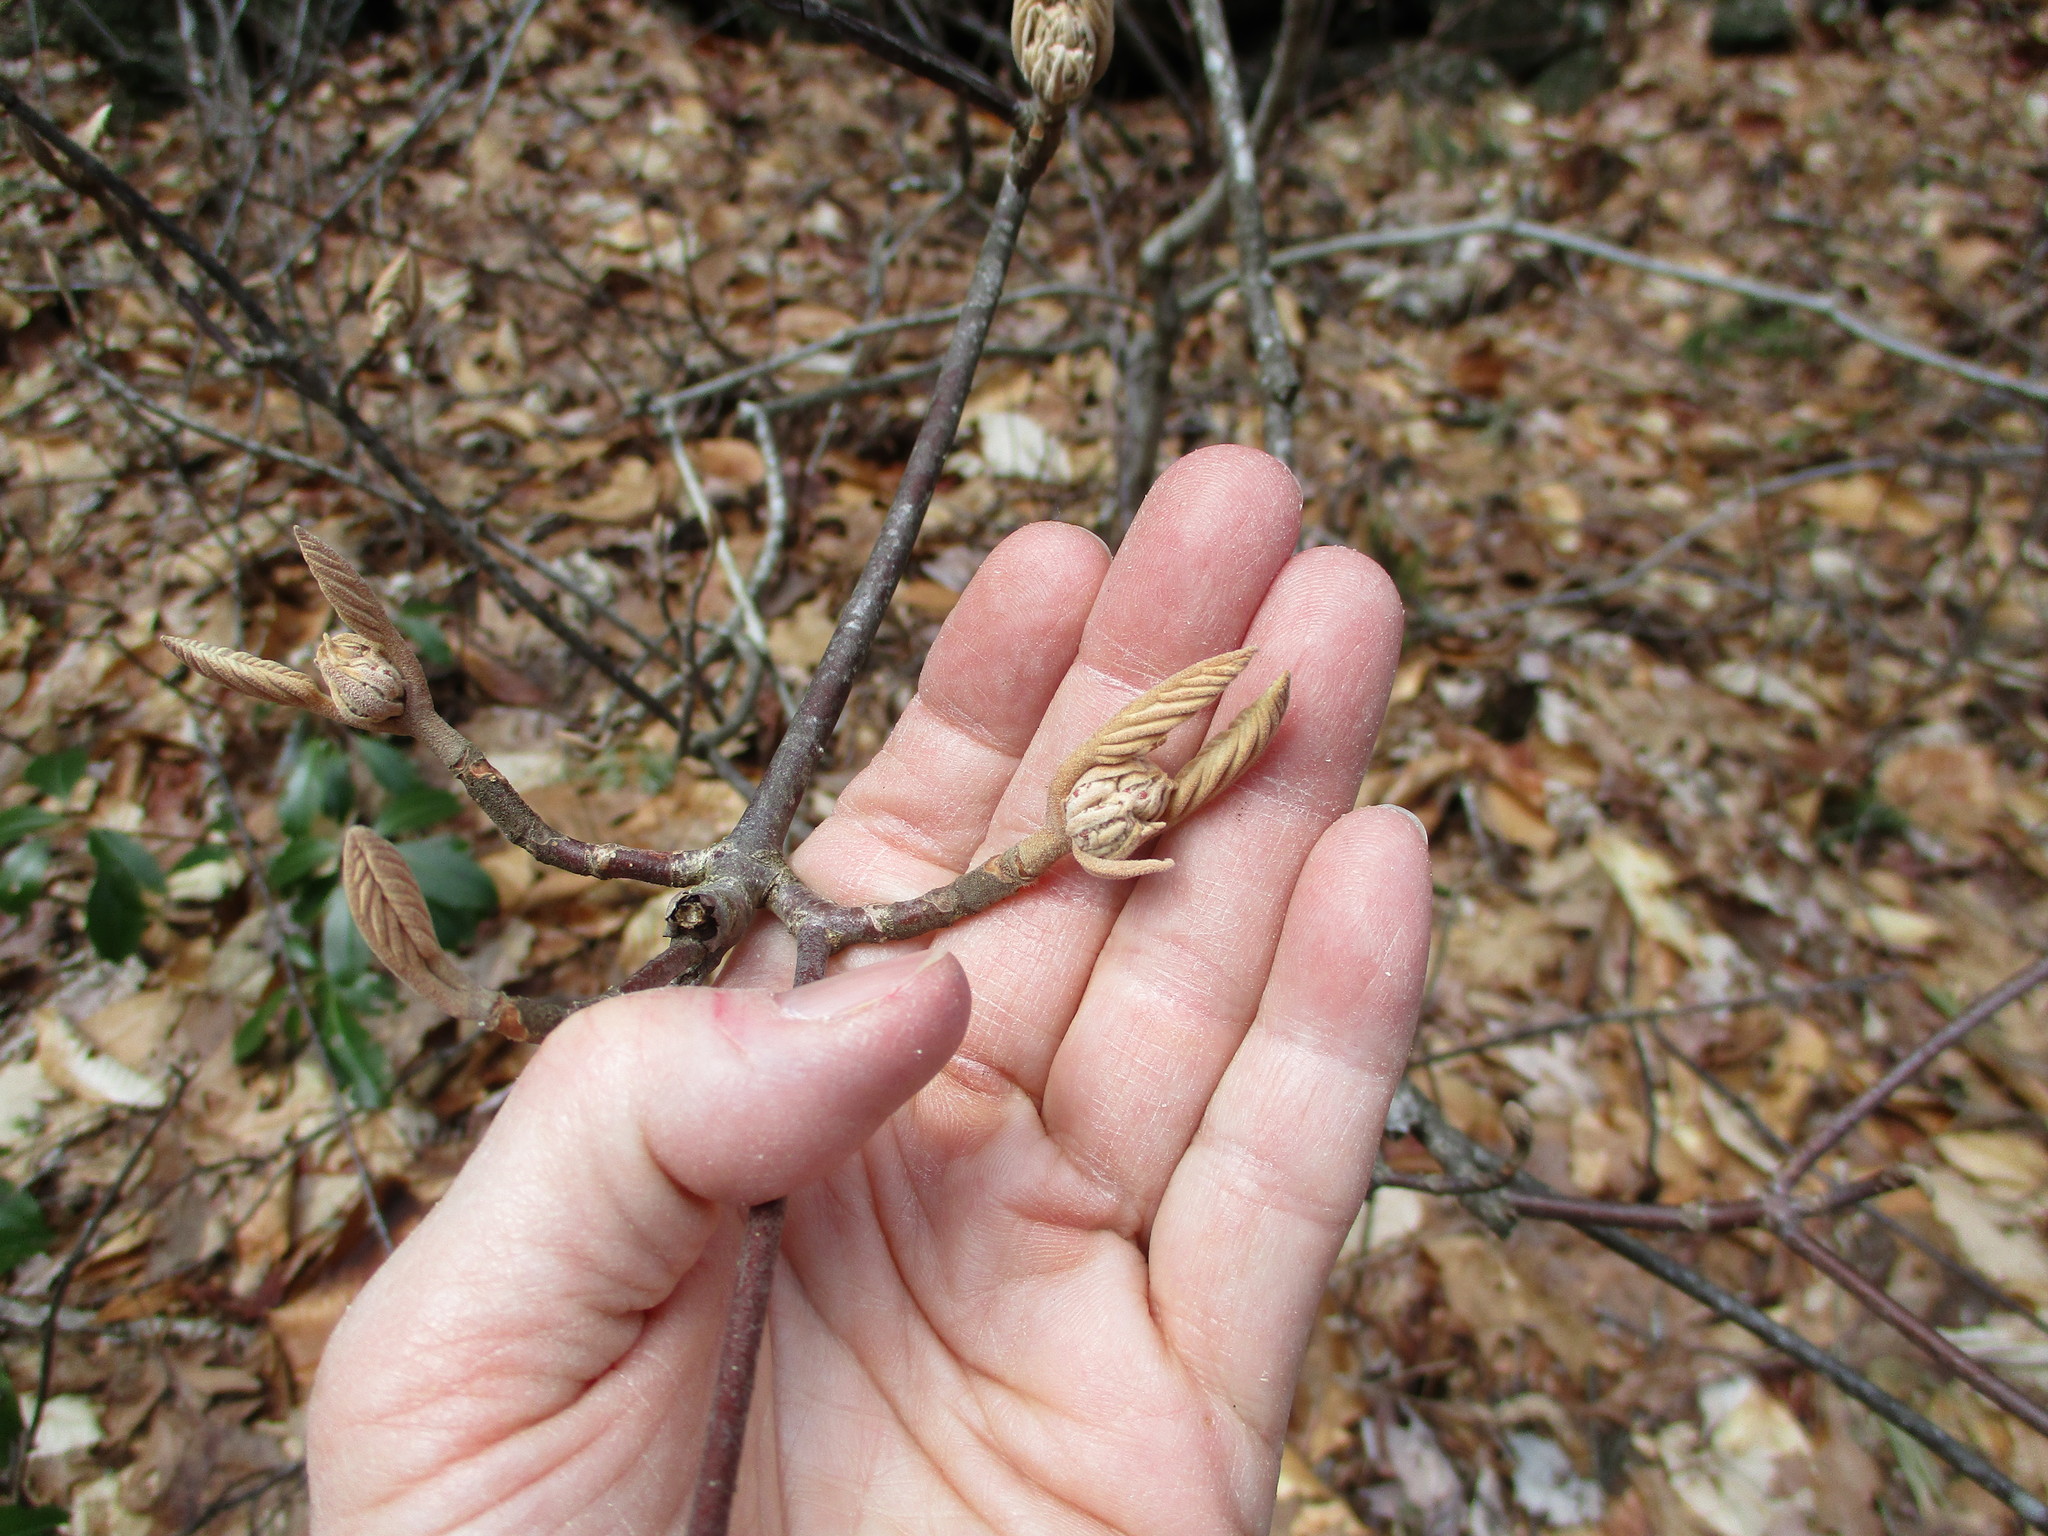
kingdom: Plantae
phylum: Tracheophyta
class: Magnoliopsida
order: Dipsacales
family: Viburnaceae
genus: Viburnum
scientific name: Viburnum lantanoides
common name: Hobblebush
